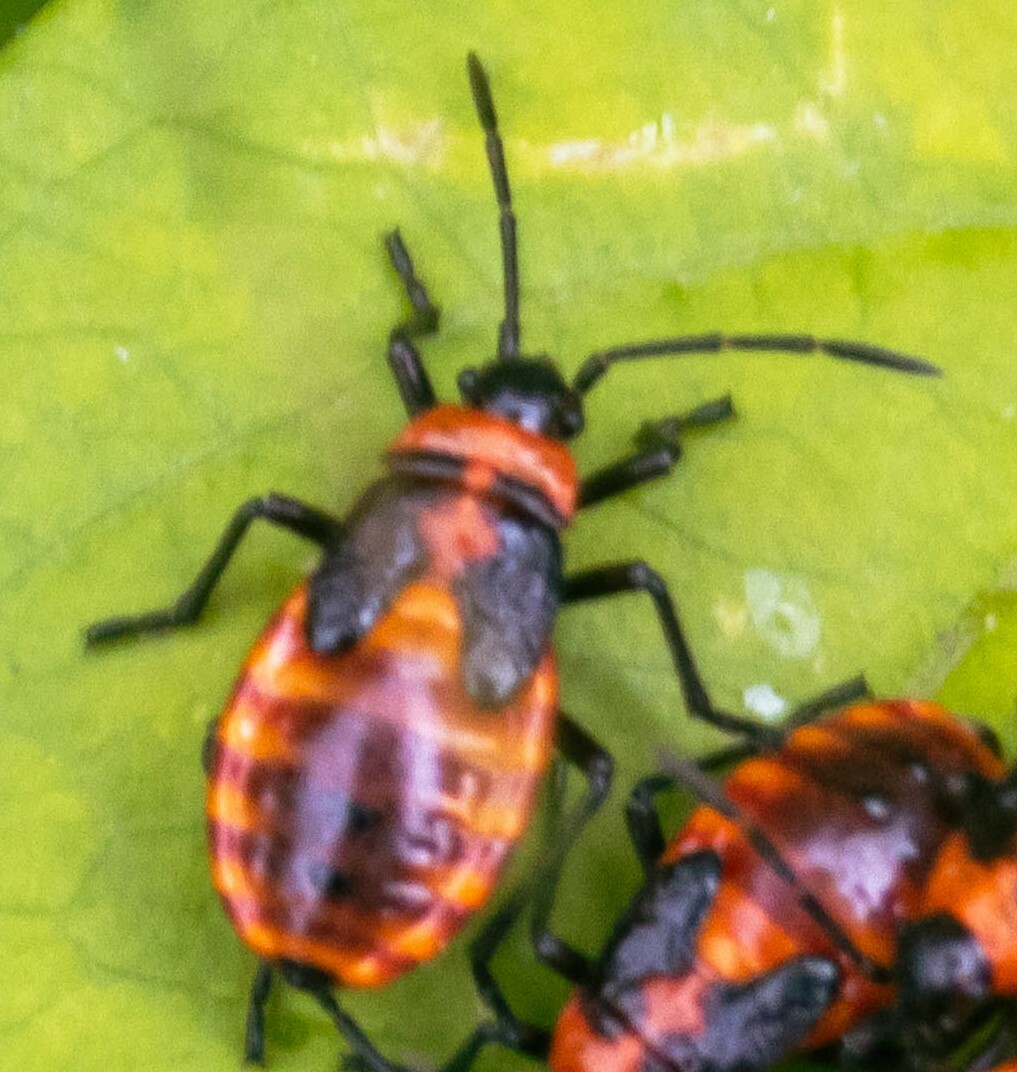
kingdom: Animalia
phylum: Arthropoda
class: Insecta
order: Hemiptera
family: Lygaeidae
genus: Tropidothorax
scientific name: Tropidothorax leucopterus
